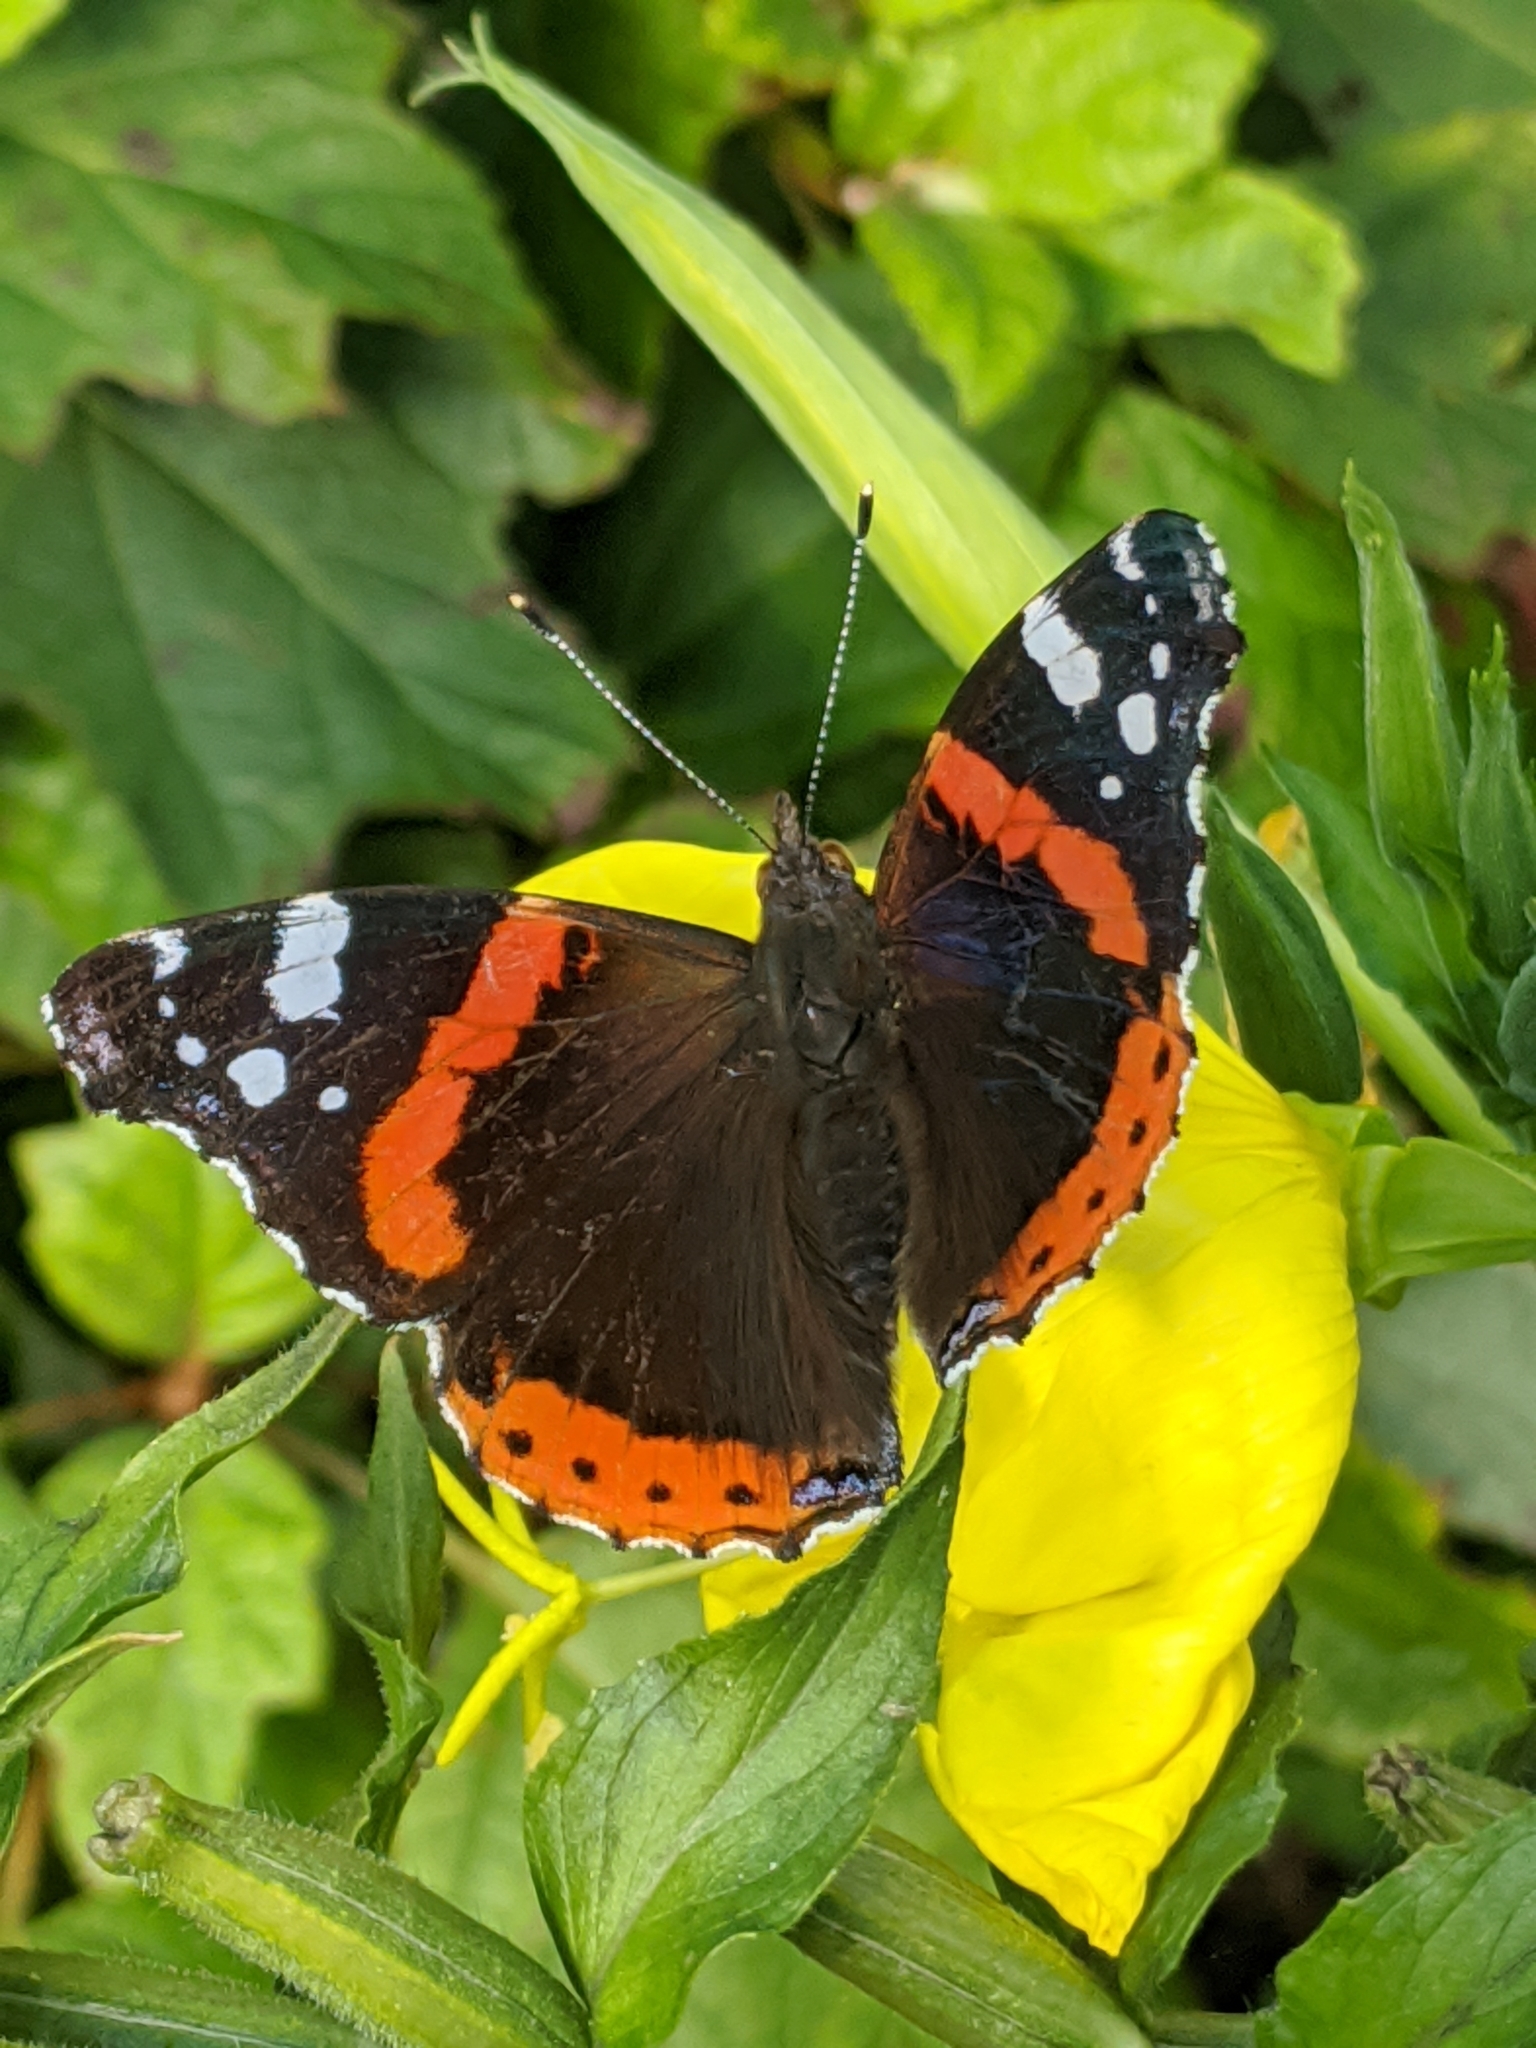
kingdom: Animalia
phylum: Arthropoda
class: Insecta
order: Lepidoptera
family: Nymphalidae
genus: Vanessa
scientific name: Vanessa atalanta
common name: Red admiral
